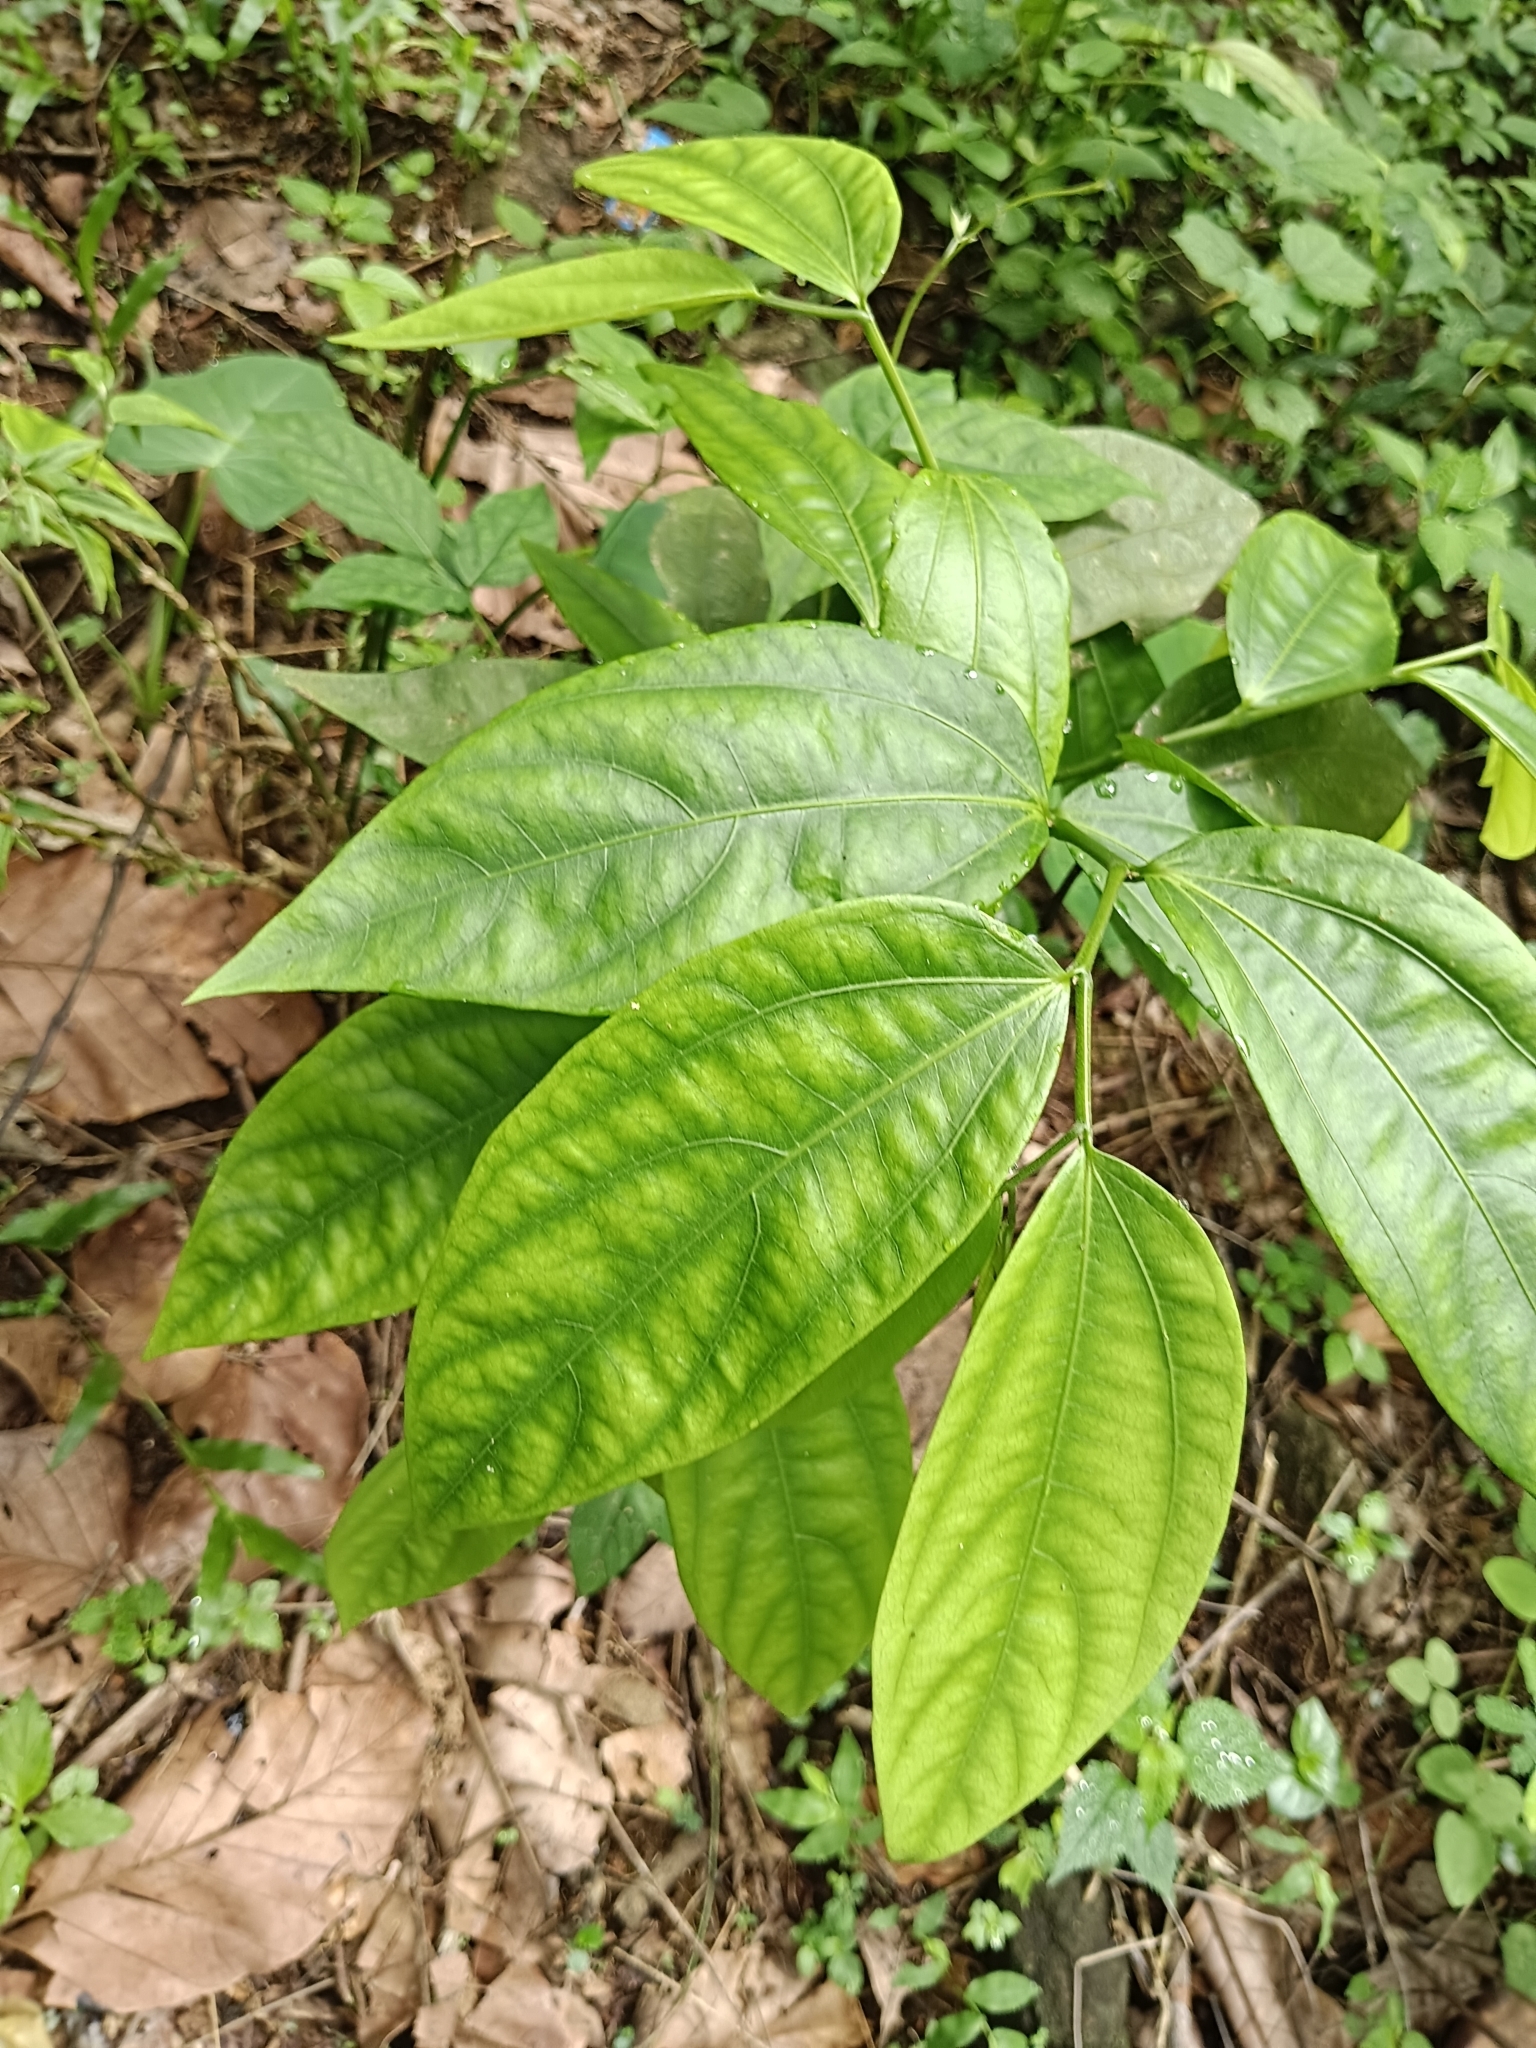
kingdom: Plantae
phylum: Tracheophyta
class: Magnoliopsida
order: Piperales
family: Aristolochiaceae
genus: Thottea
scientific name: Thottea siliquosa
